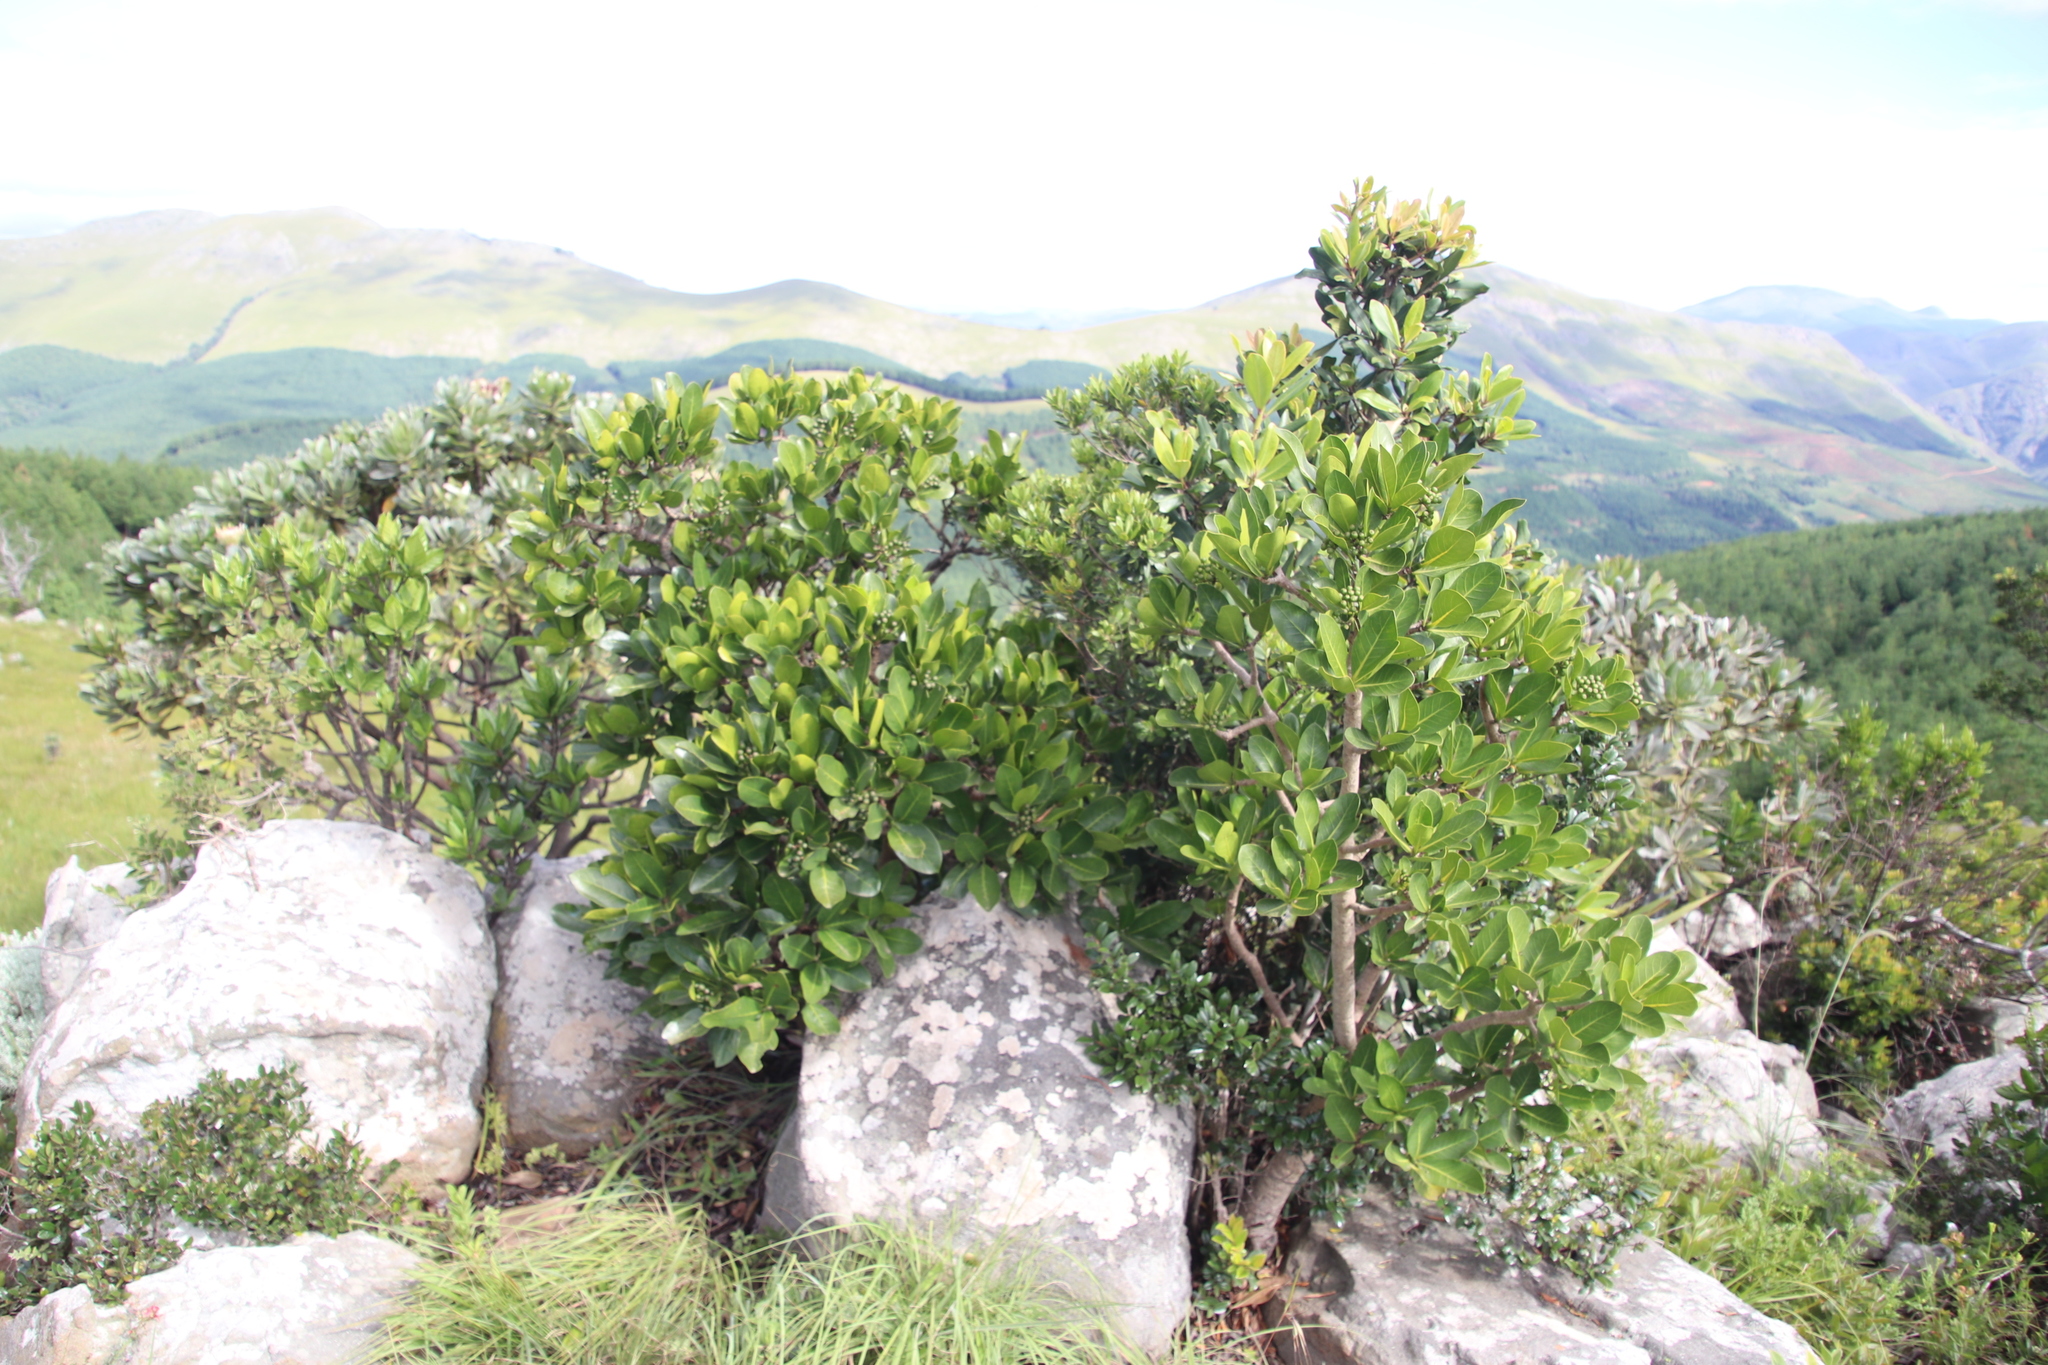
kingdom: Plantae
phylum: Tracheophyta
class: Magnoliopsida
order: Gentianales
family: Rubiaceae
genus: Psychotria
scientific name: Psychotria
